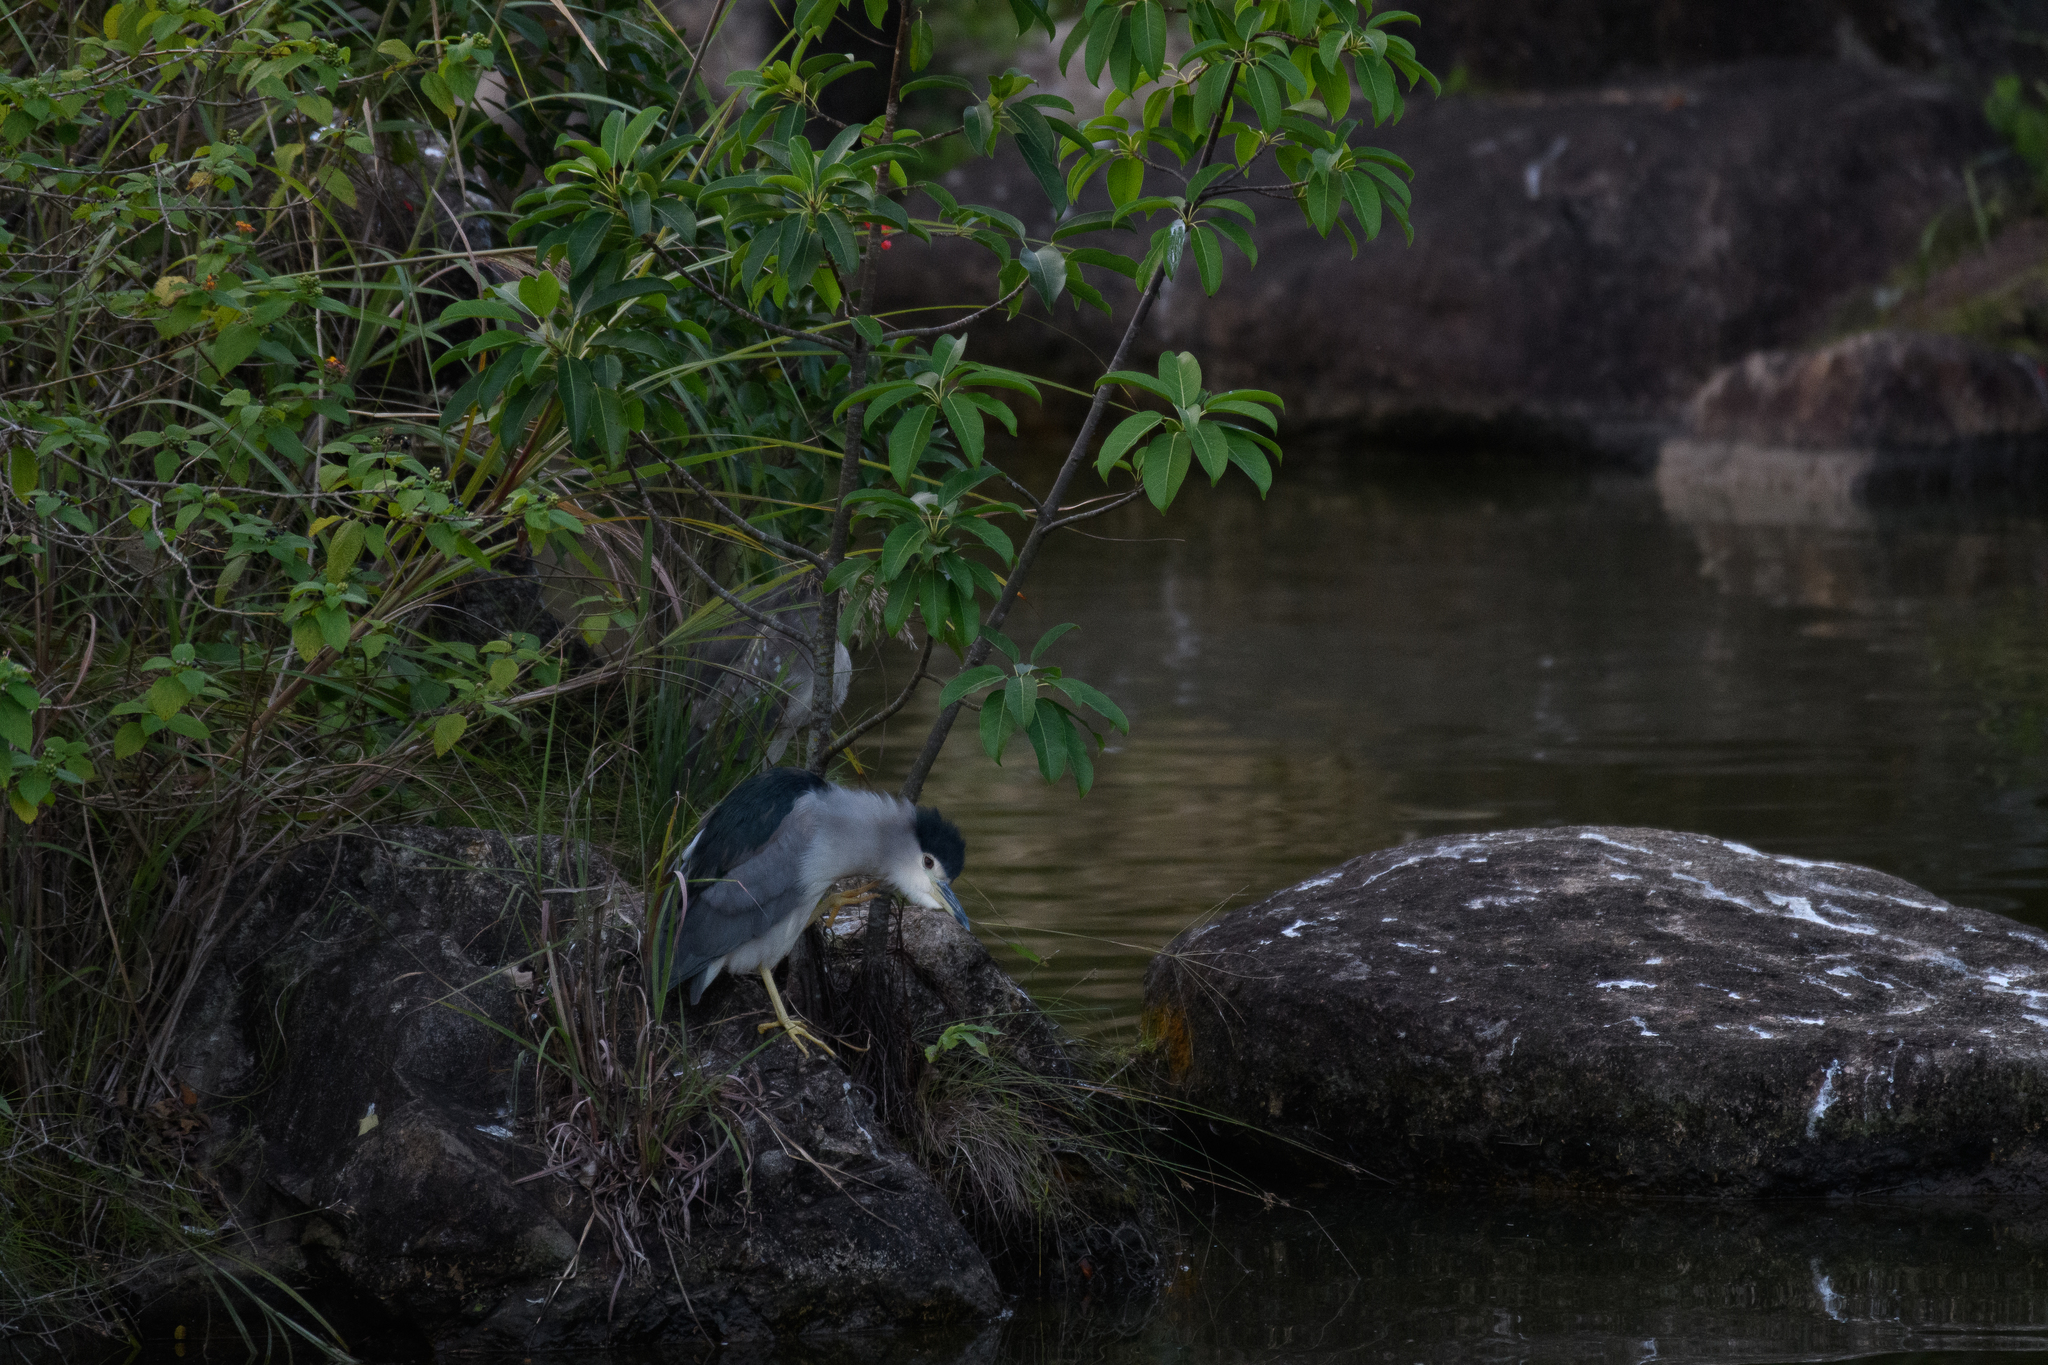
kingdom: Animalia
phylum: Chordata
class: Aves
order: Pelecaniformes
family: Ardeidae
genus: Nycticorax
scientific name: Nycticorax nycticorax
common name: Black-crowned night heron
